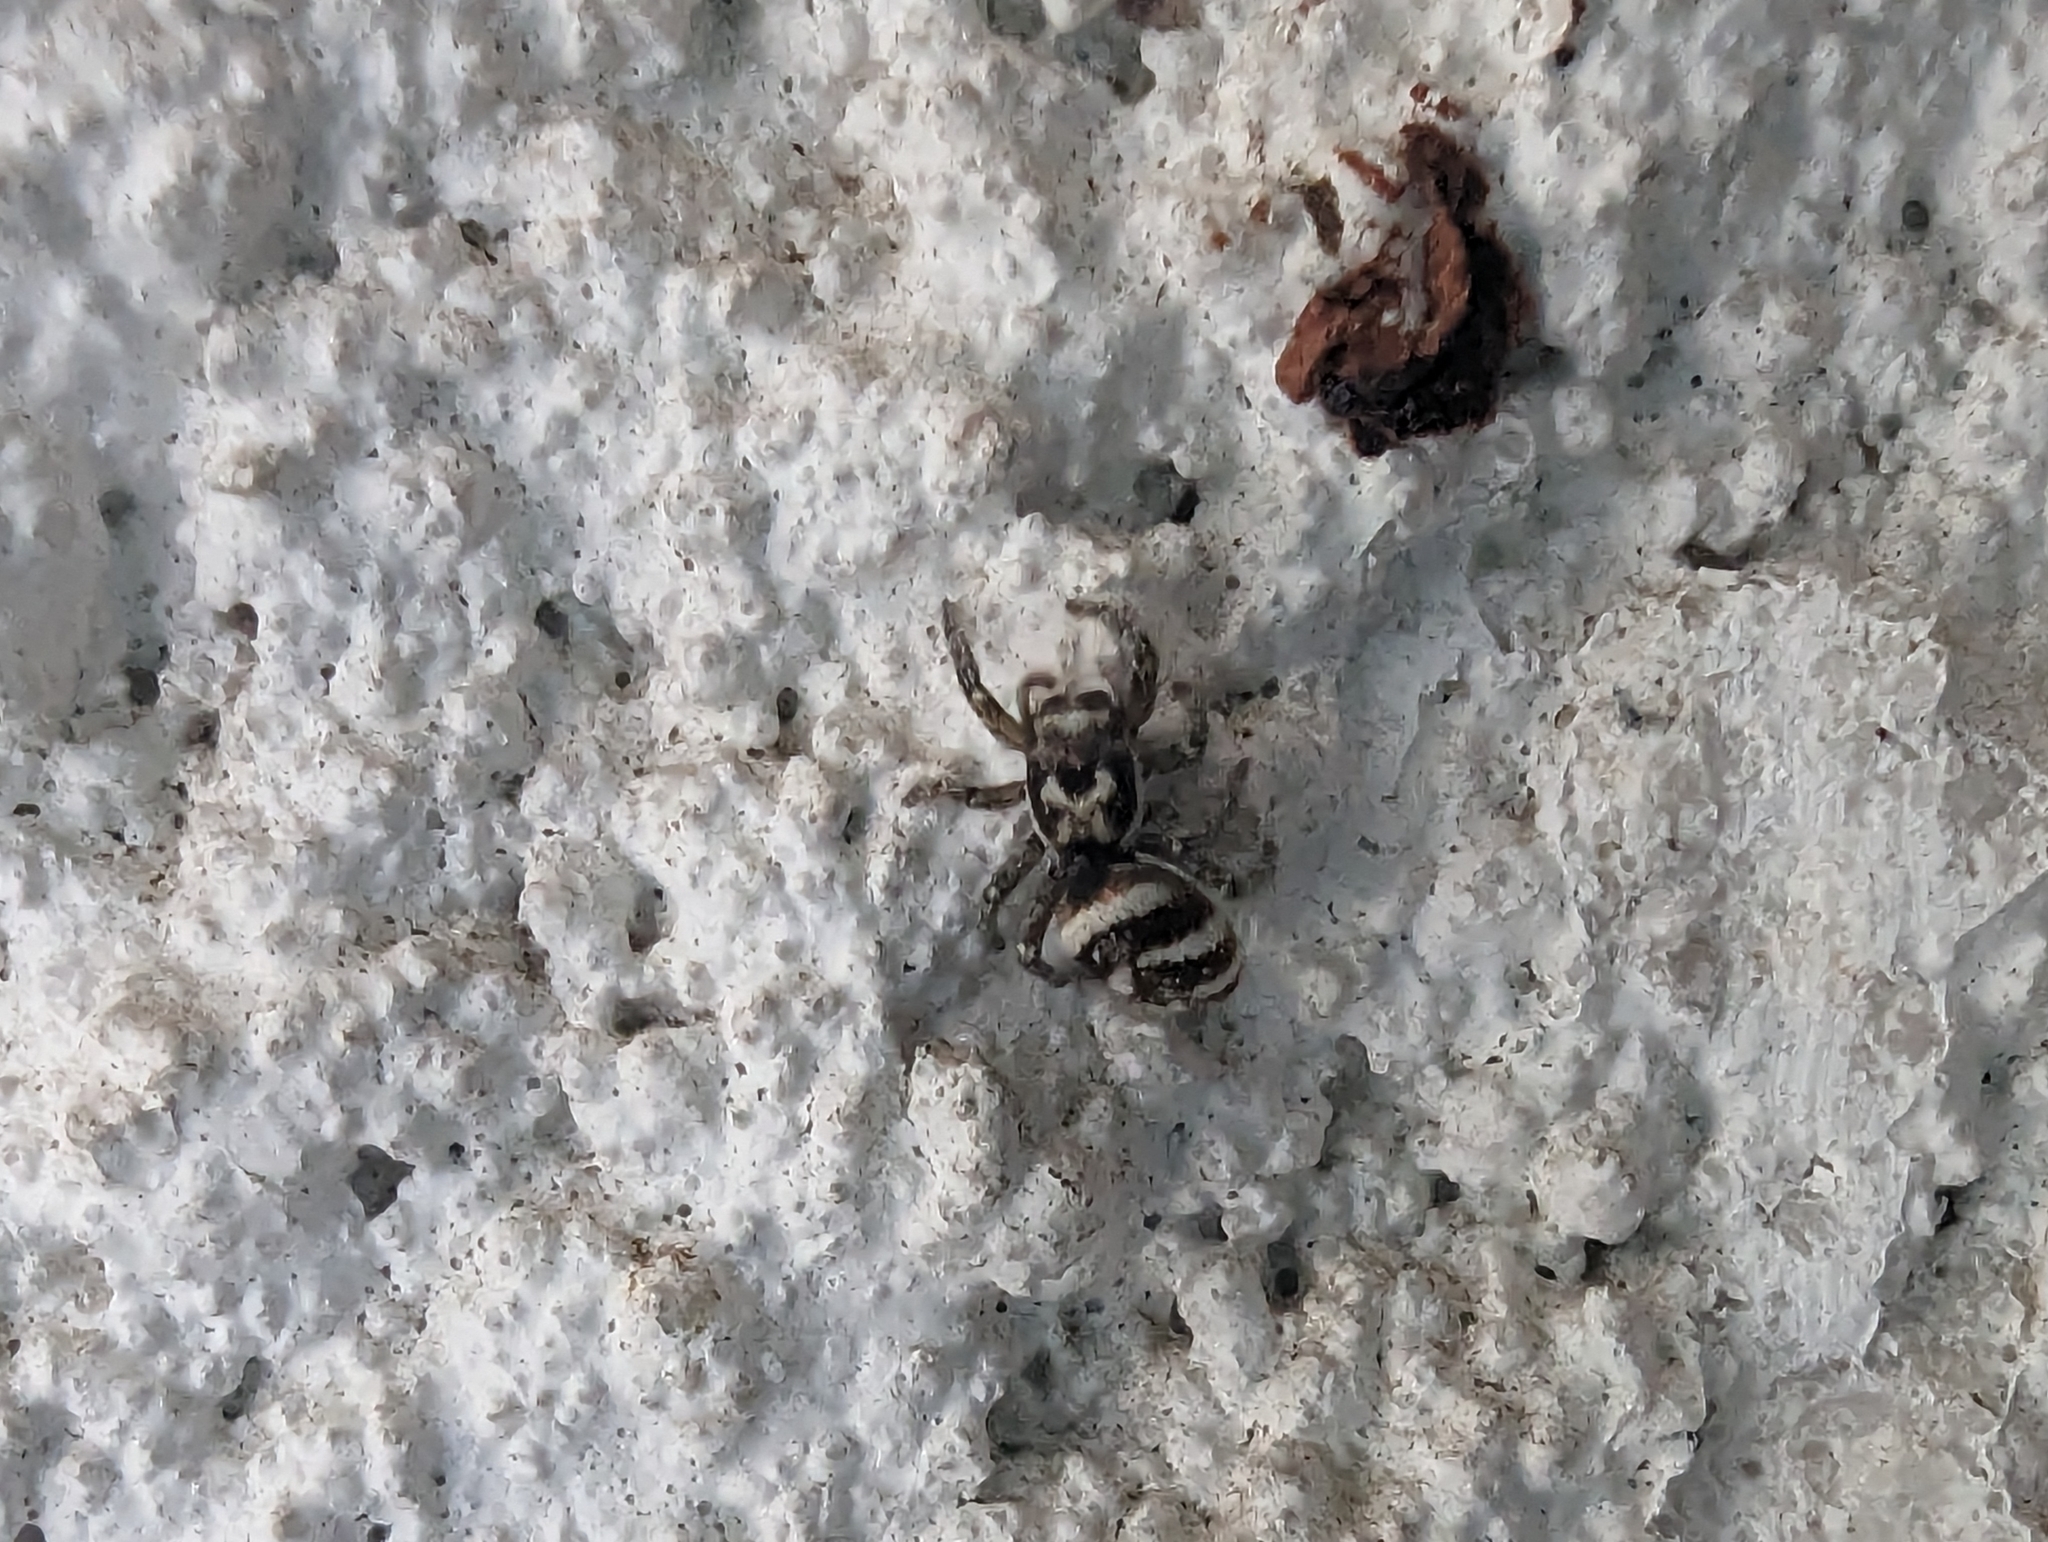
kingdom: Animalia
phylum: Arthropoda
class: Arachnida
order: Araneae
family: Salticidae
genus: Salticus
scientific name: Salticus scenicus
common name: Zebra jumper
